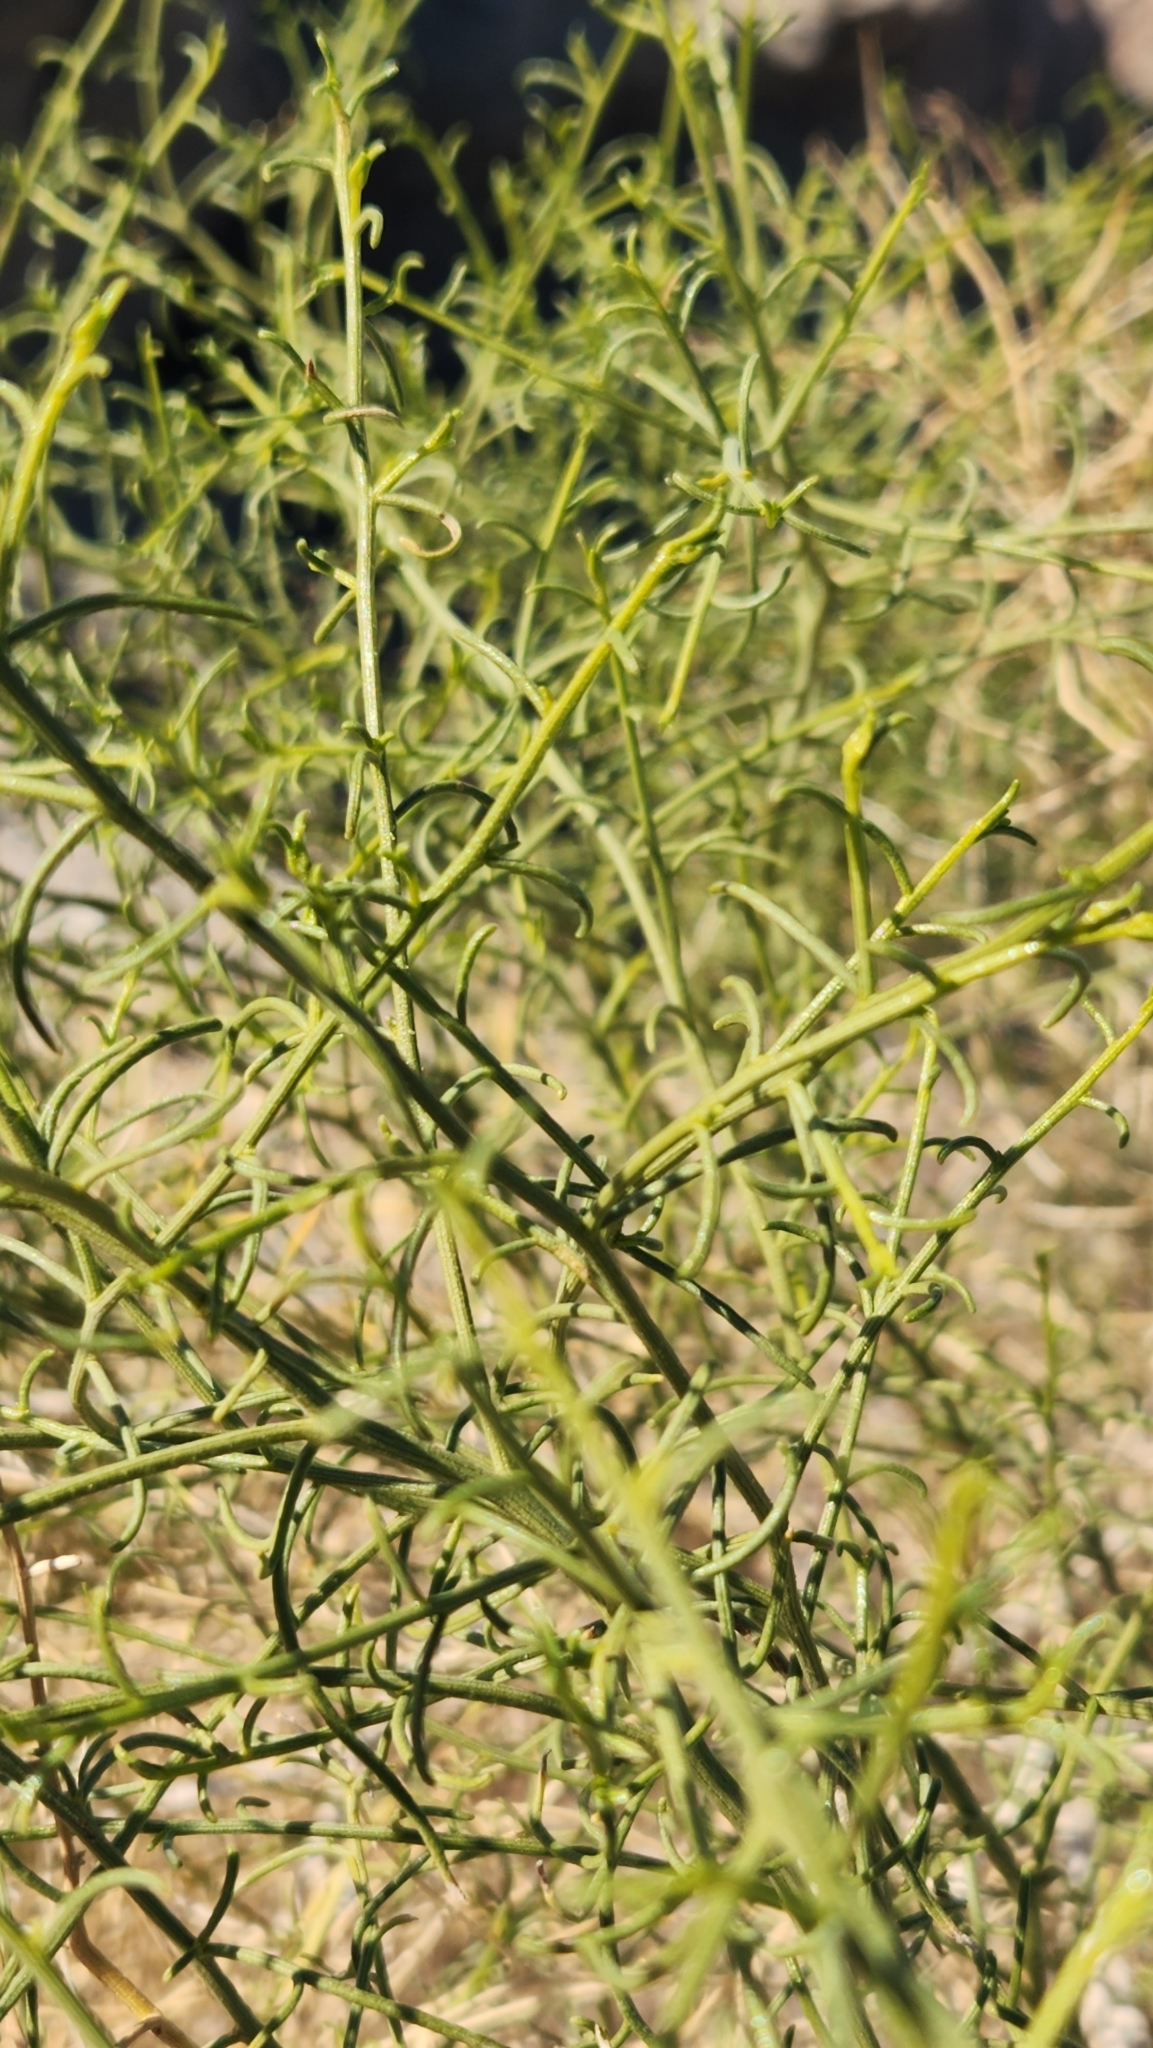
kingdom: Plantae
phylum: Tracheophyta
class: Magnoliopsida
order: Asterales
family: Asteraceae
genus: Ambrosia
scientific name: Ambrosia salsola
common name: Burrobrush
